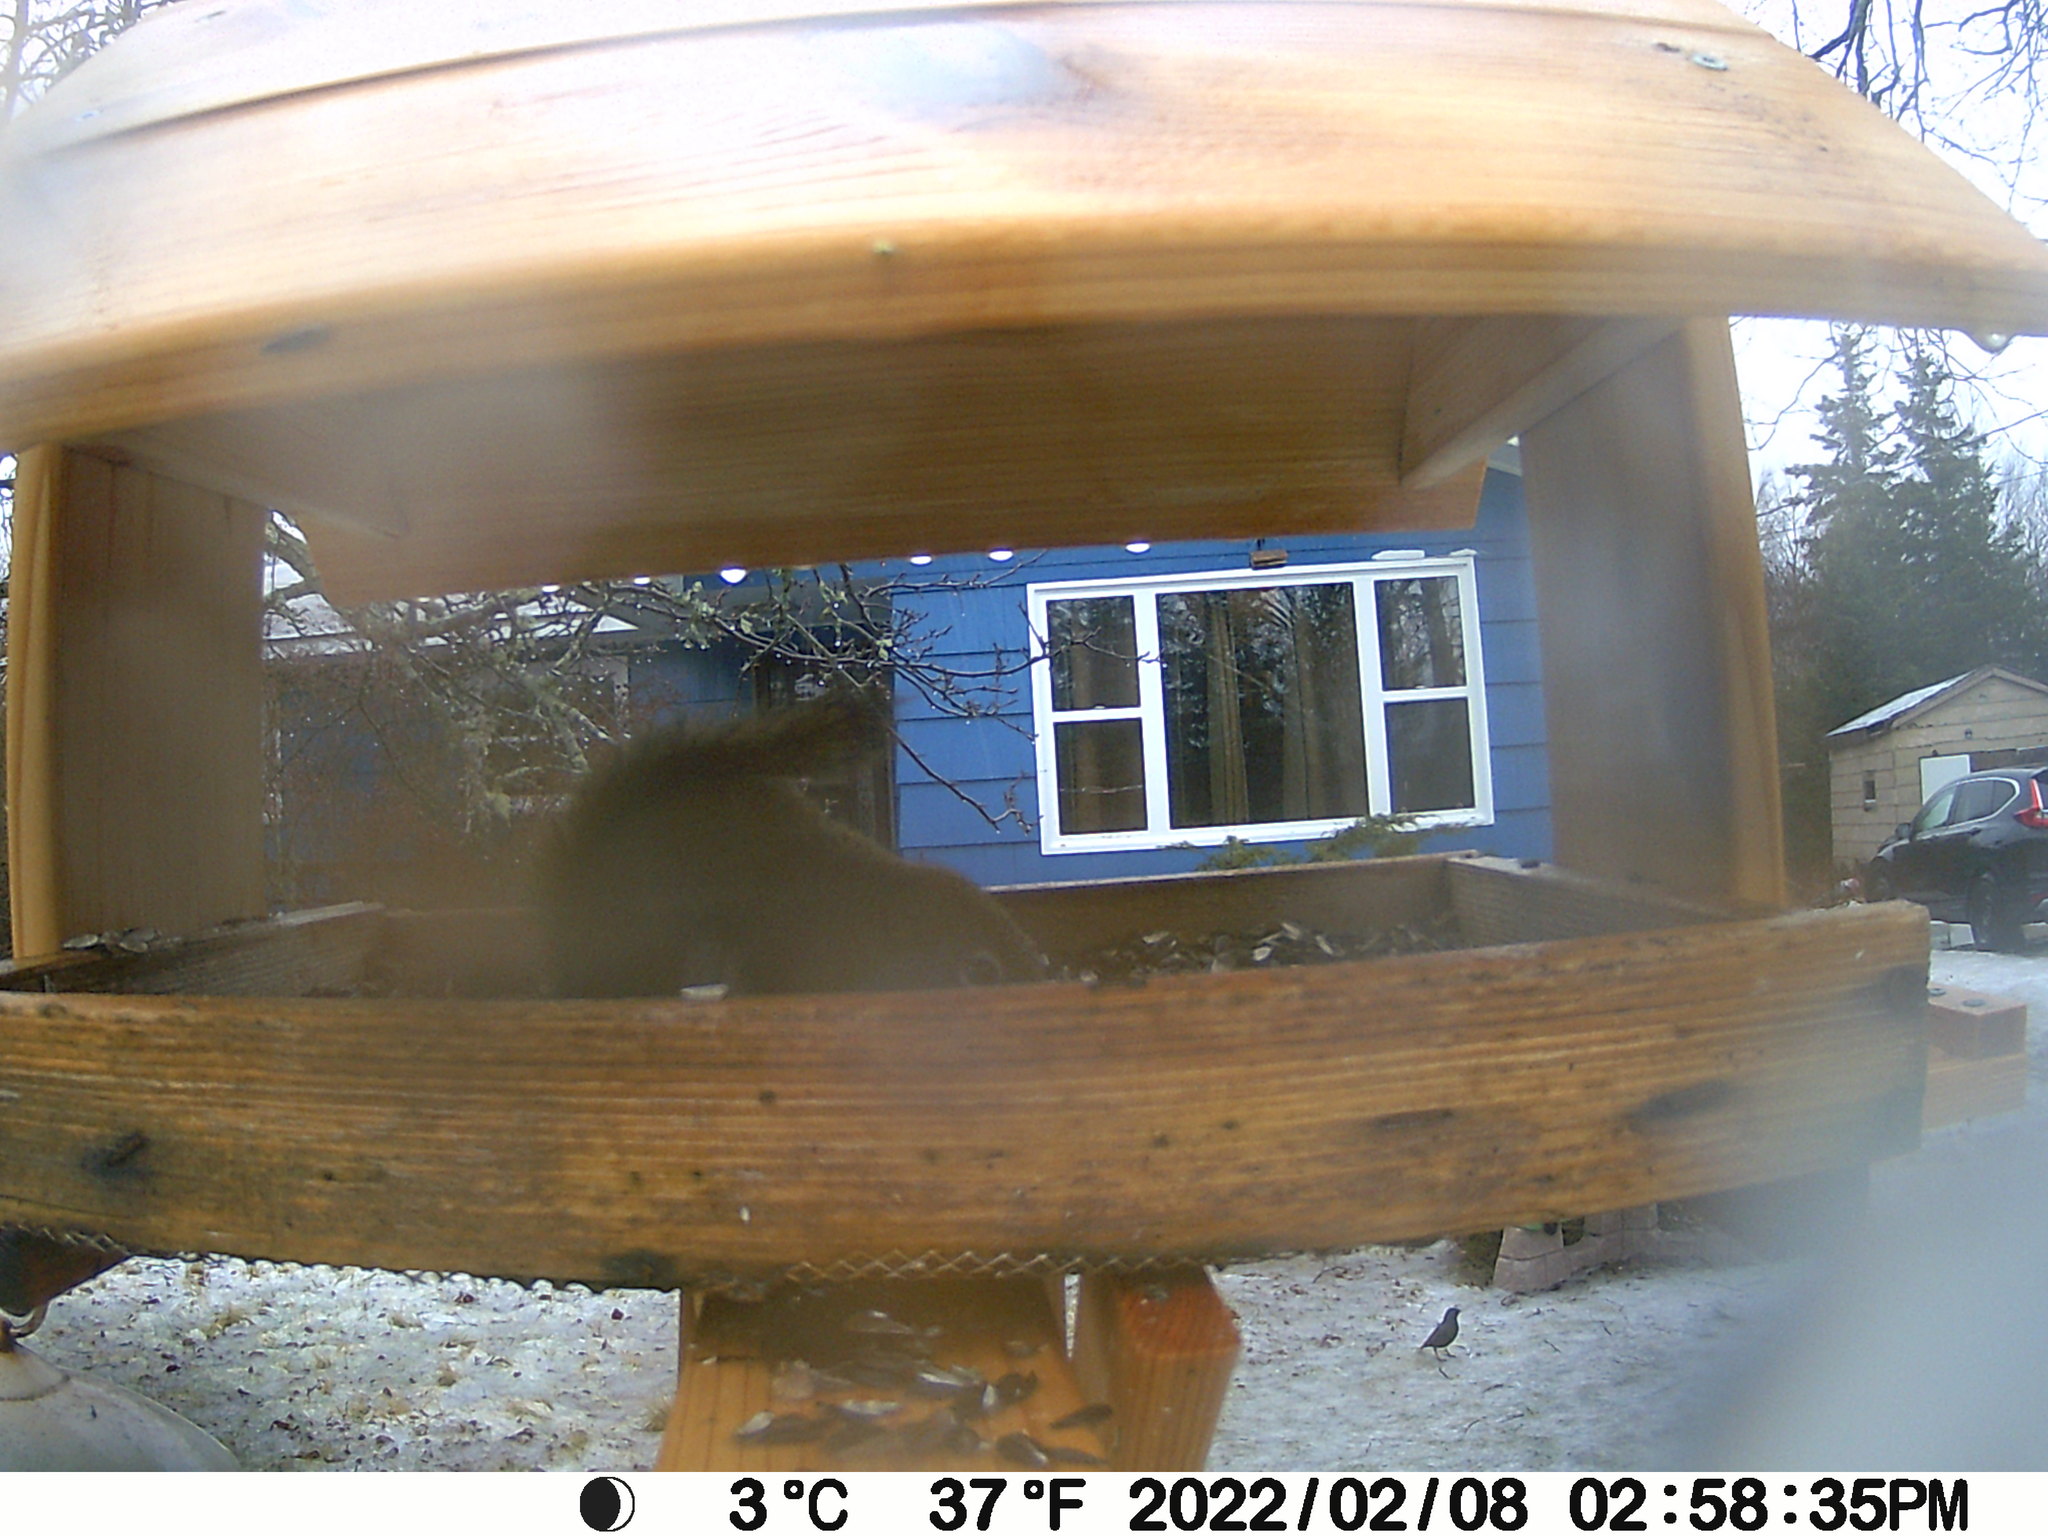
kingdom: Animalia
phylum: Chordata
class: Aves
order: Passeriformes
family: Sturnidae
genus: Sturnus
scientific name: Sturnus vulgaris
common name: Common starling
